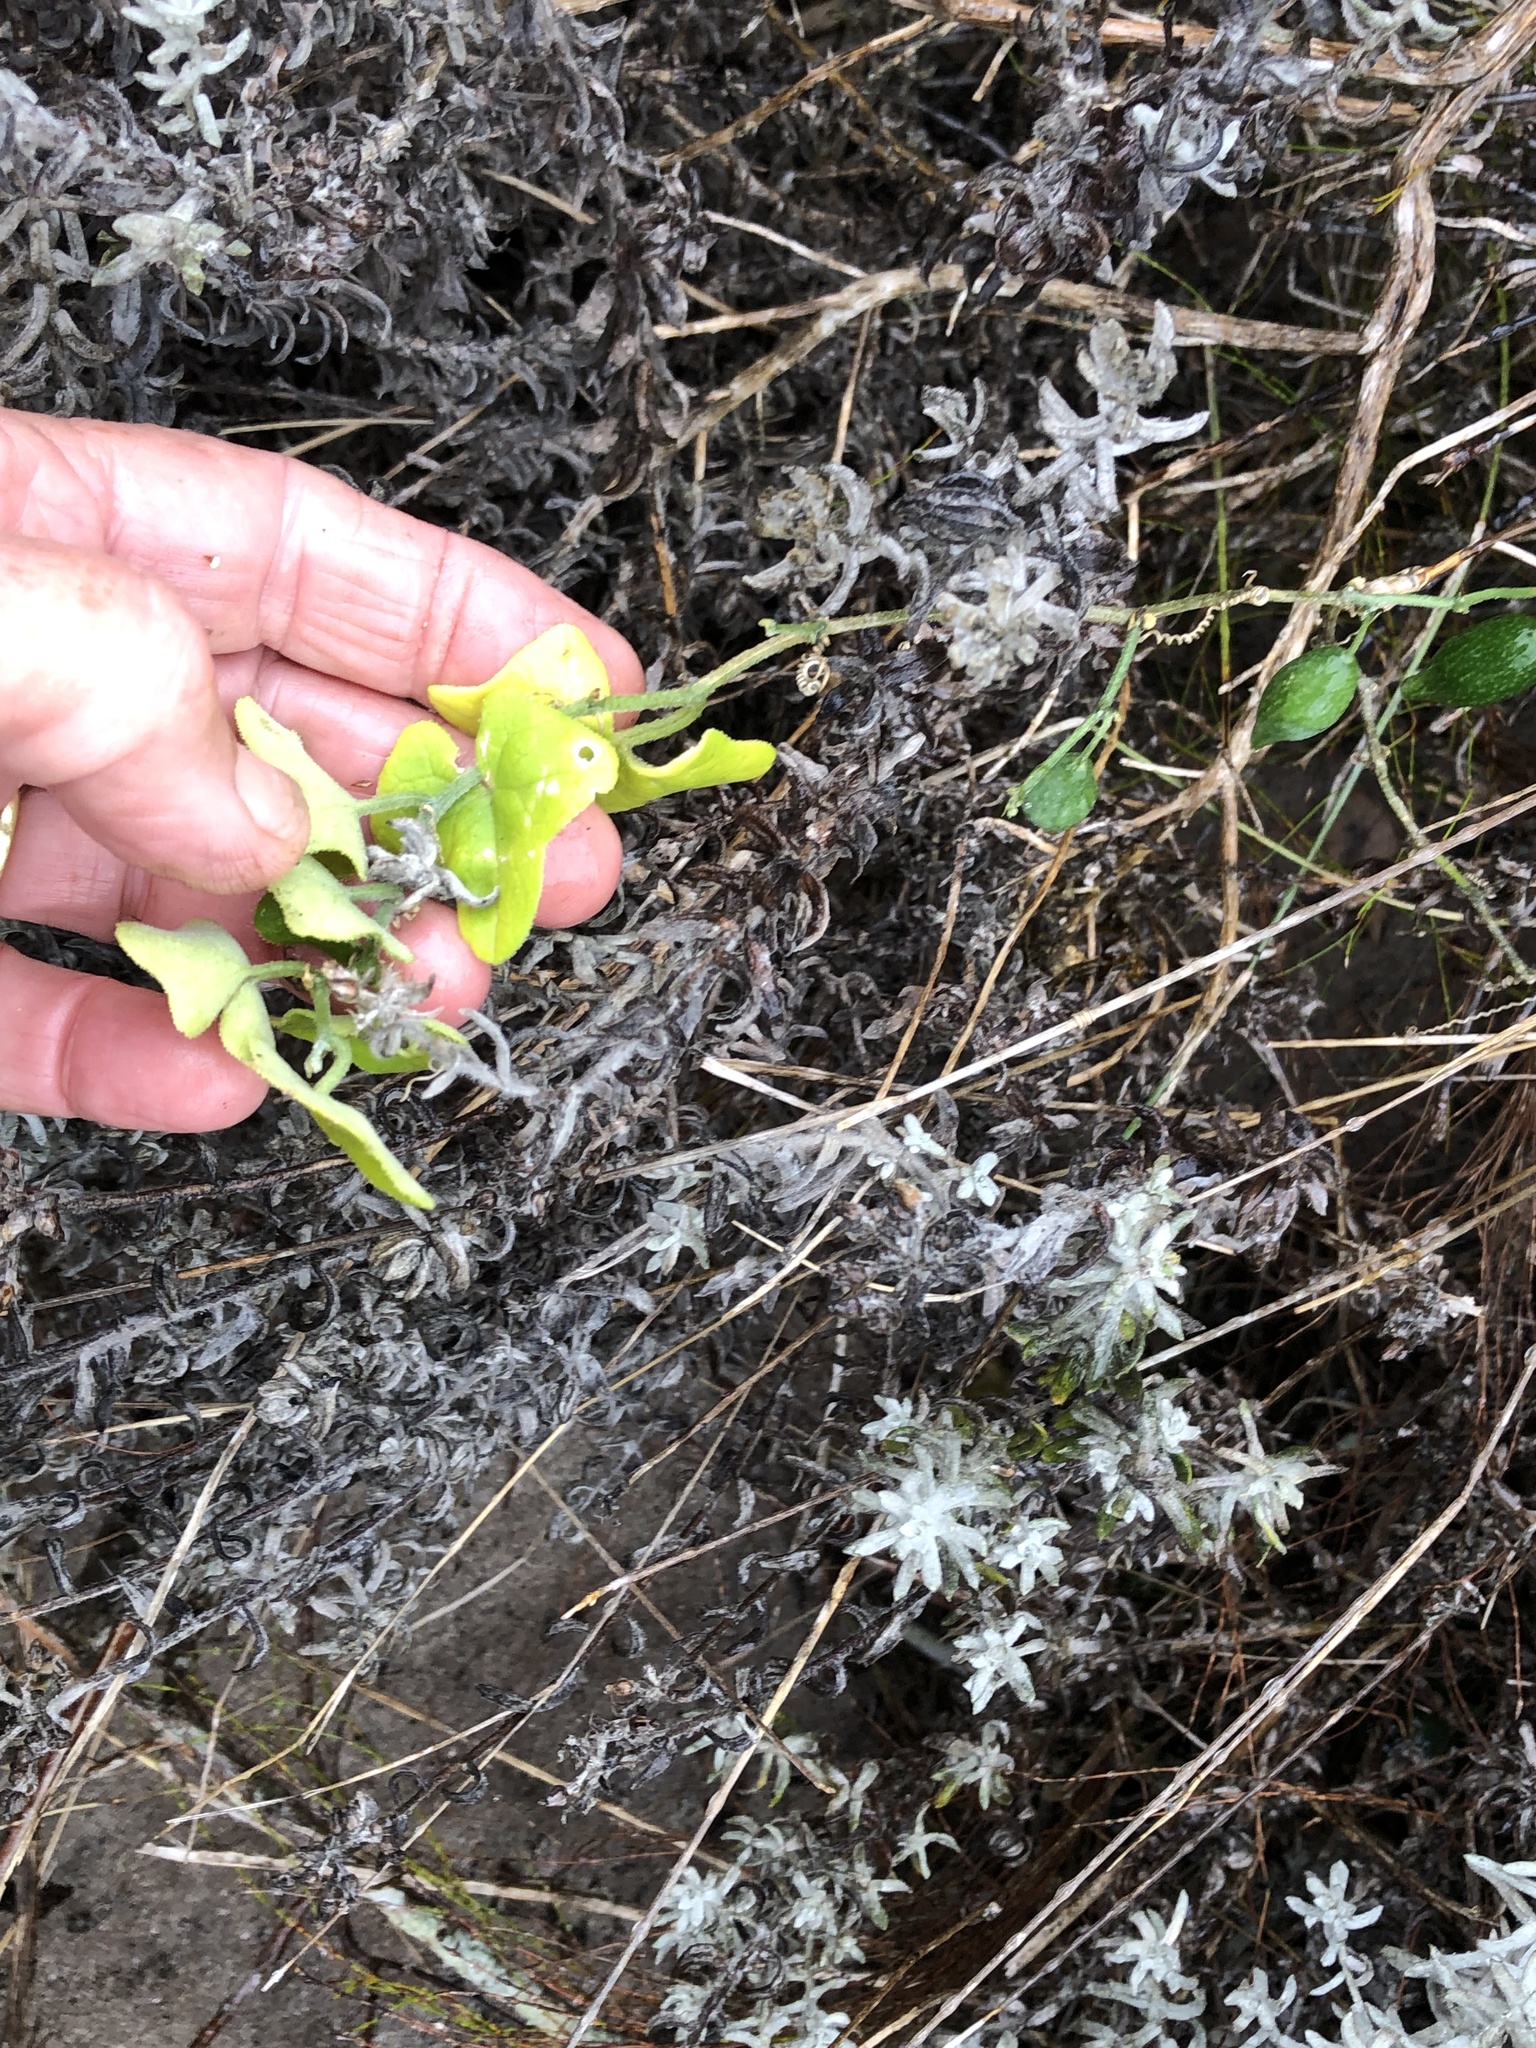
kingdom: Plantae
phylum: Tracheophyta
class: Magnoliopsida
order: Ranunculales
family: Menispermaceae
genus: Cissampelos
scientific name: Cissampelos capensis
